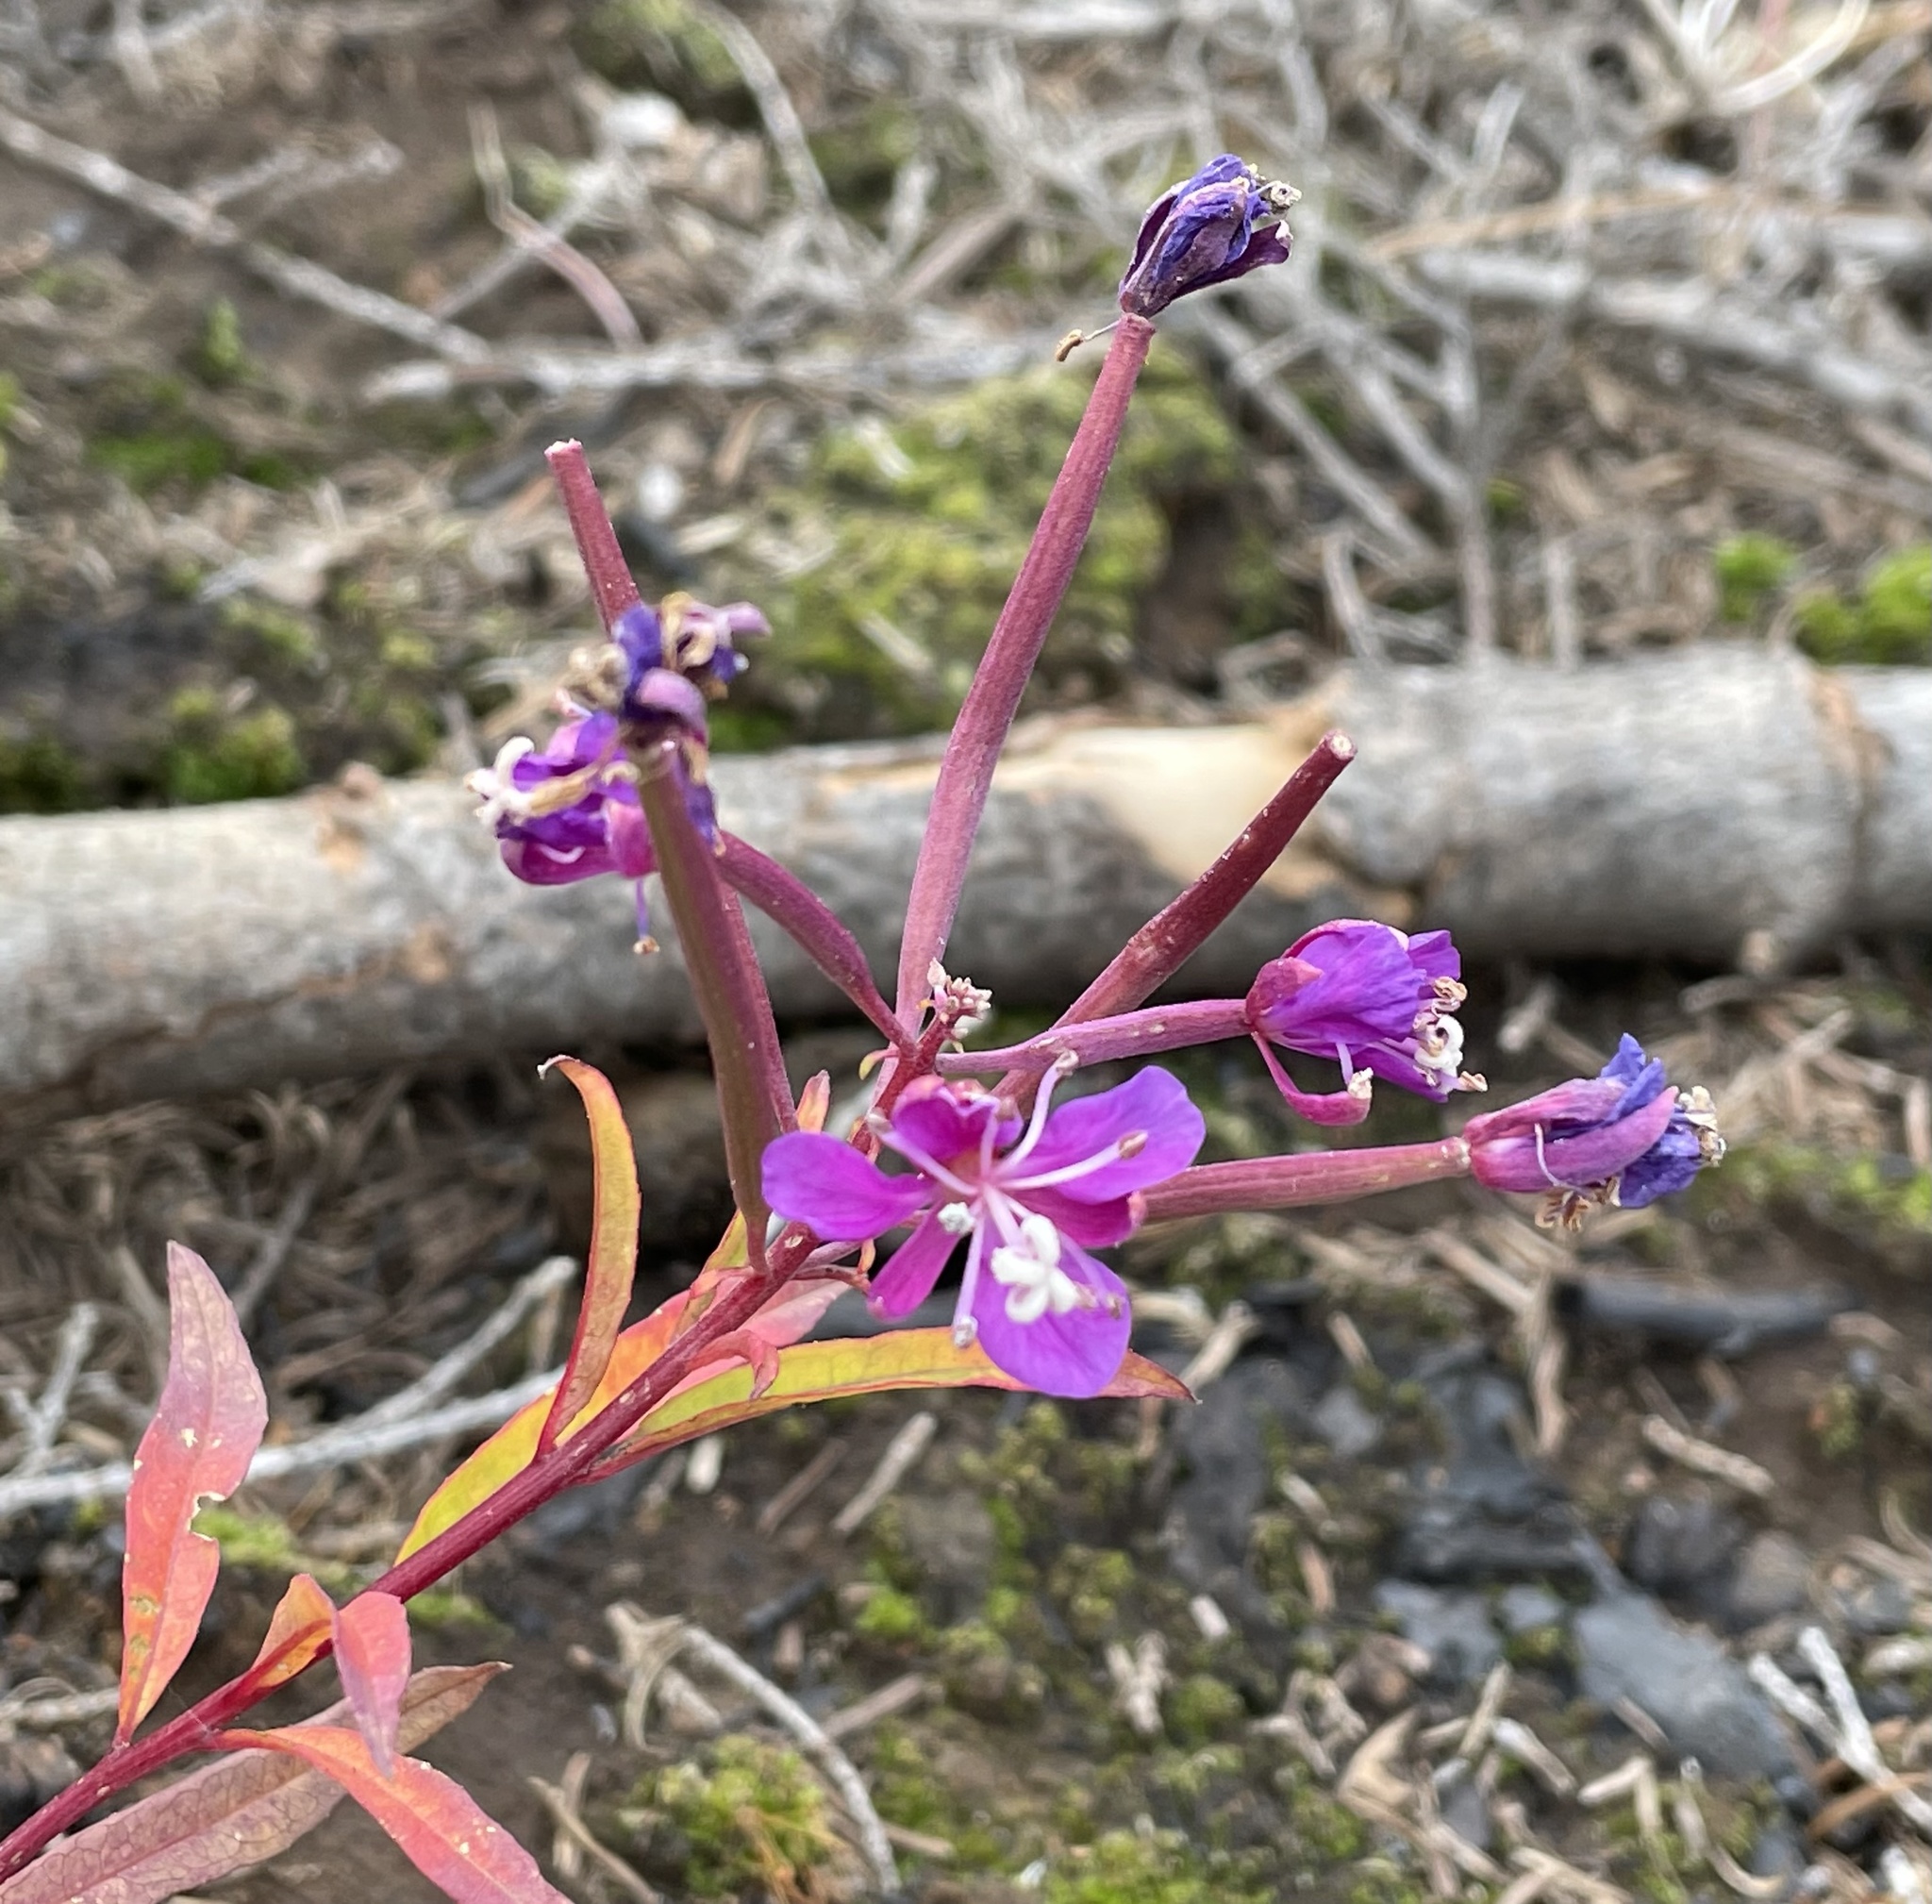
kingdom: Plantae
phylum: Tracheophyta
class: Magnoliopsida
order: Myrtales
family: Onagraceae
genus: Chamaenerion
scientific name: Chamaenerion angustifolium
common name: Fireweed
